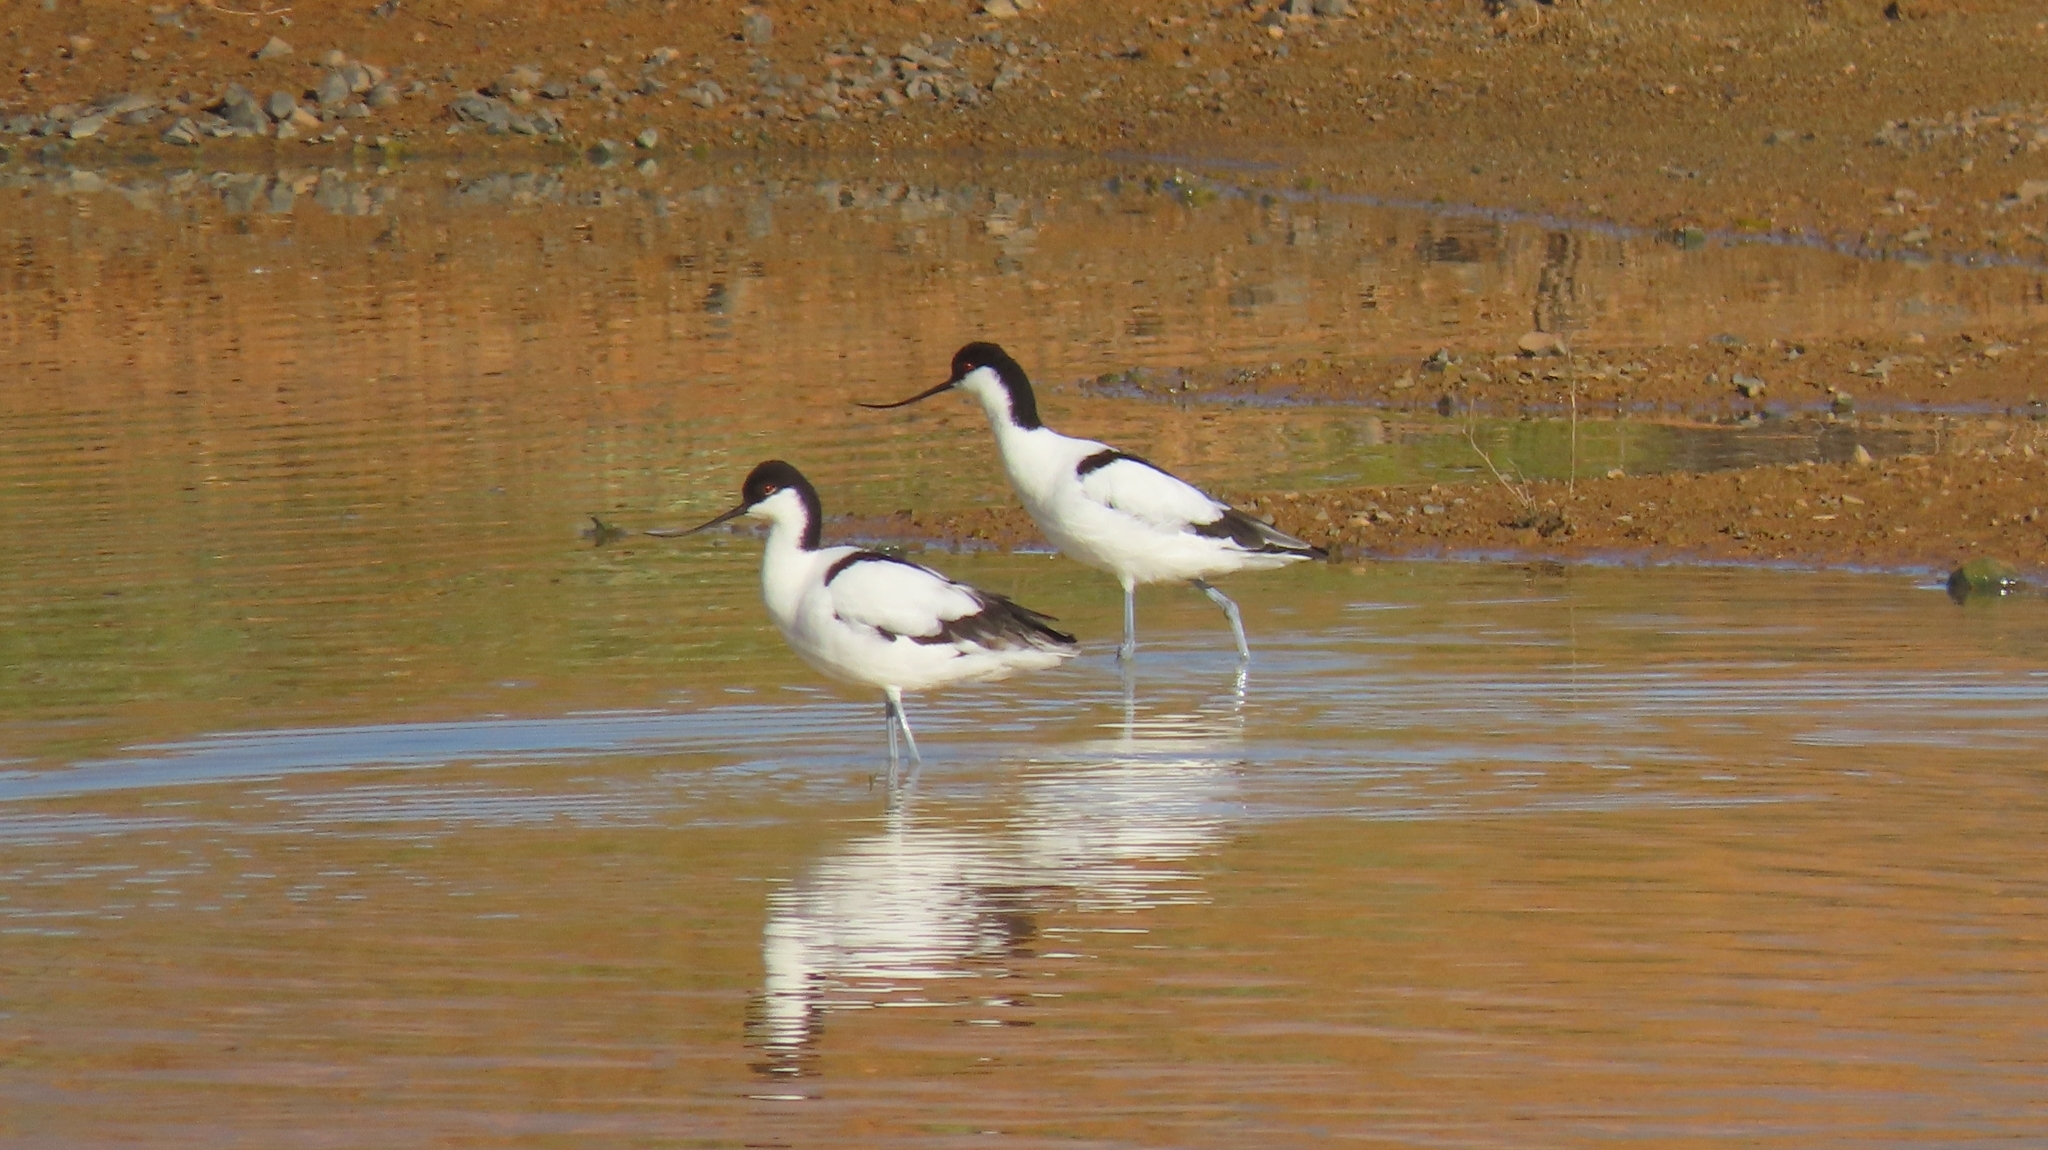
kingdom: Animalia
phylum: Chordata
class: Aves
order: Charadriiformes
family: Recurvirostridae
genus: Recurvirostra
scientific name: Recurvirostra avosetta
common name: Pied avocet
